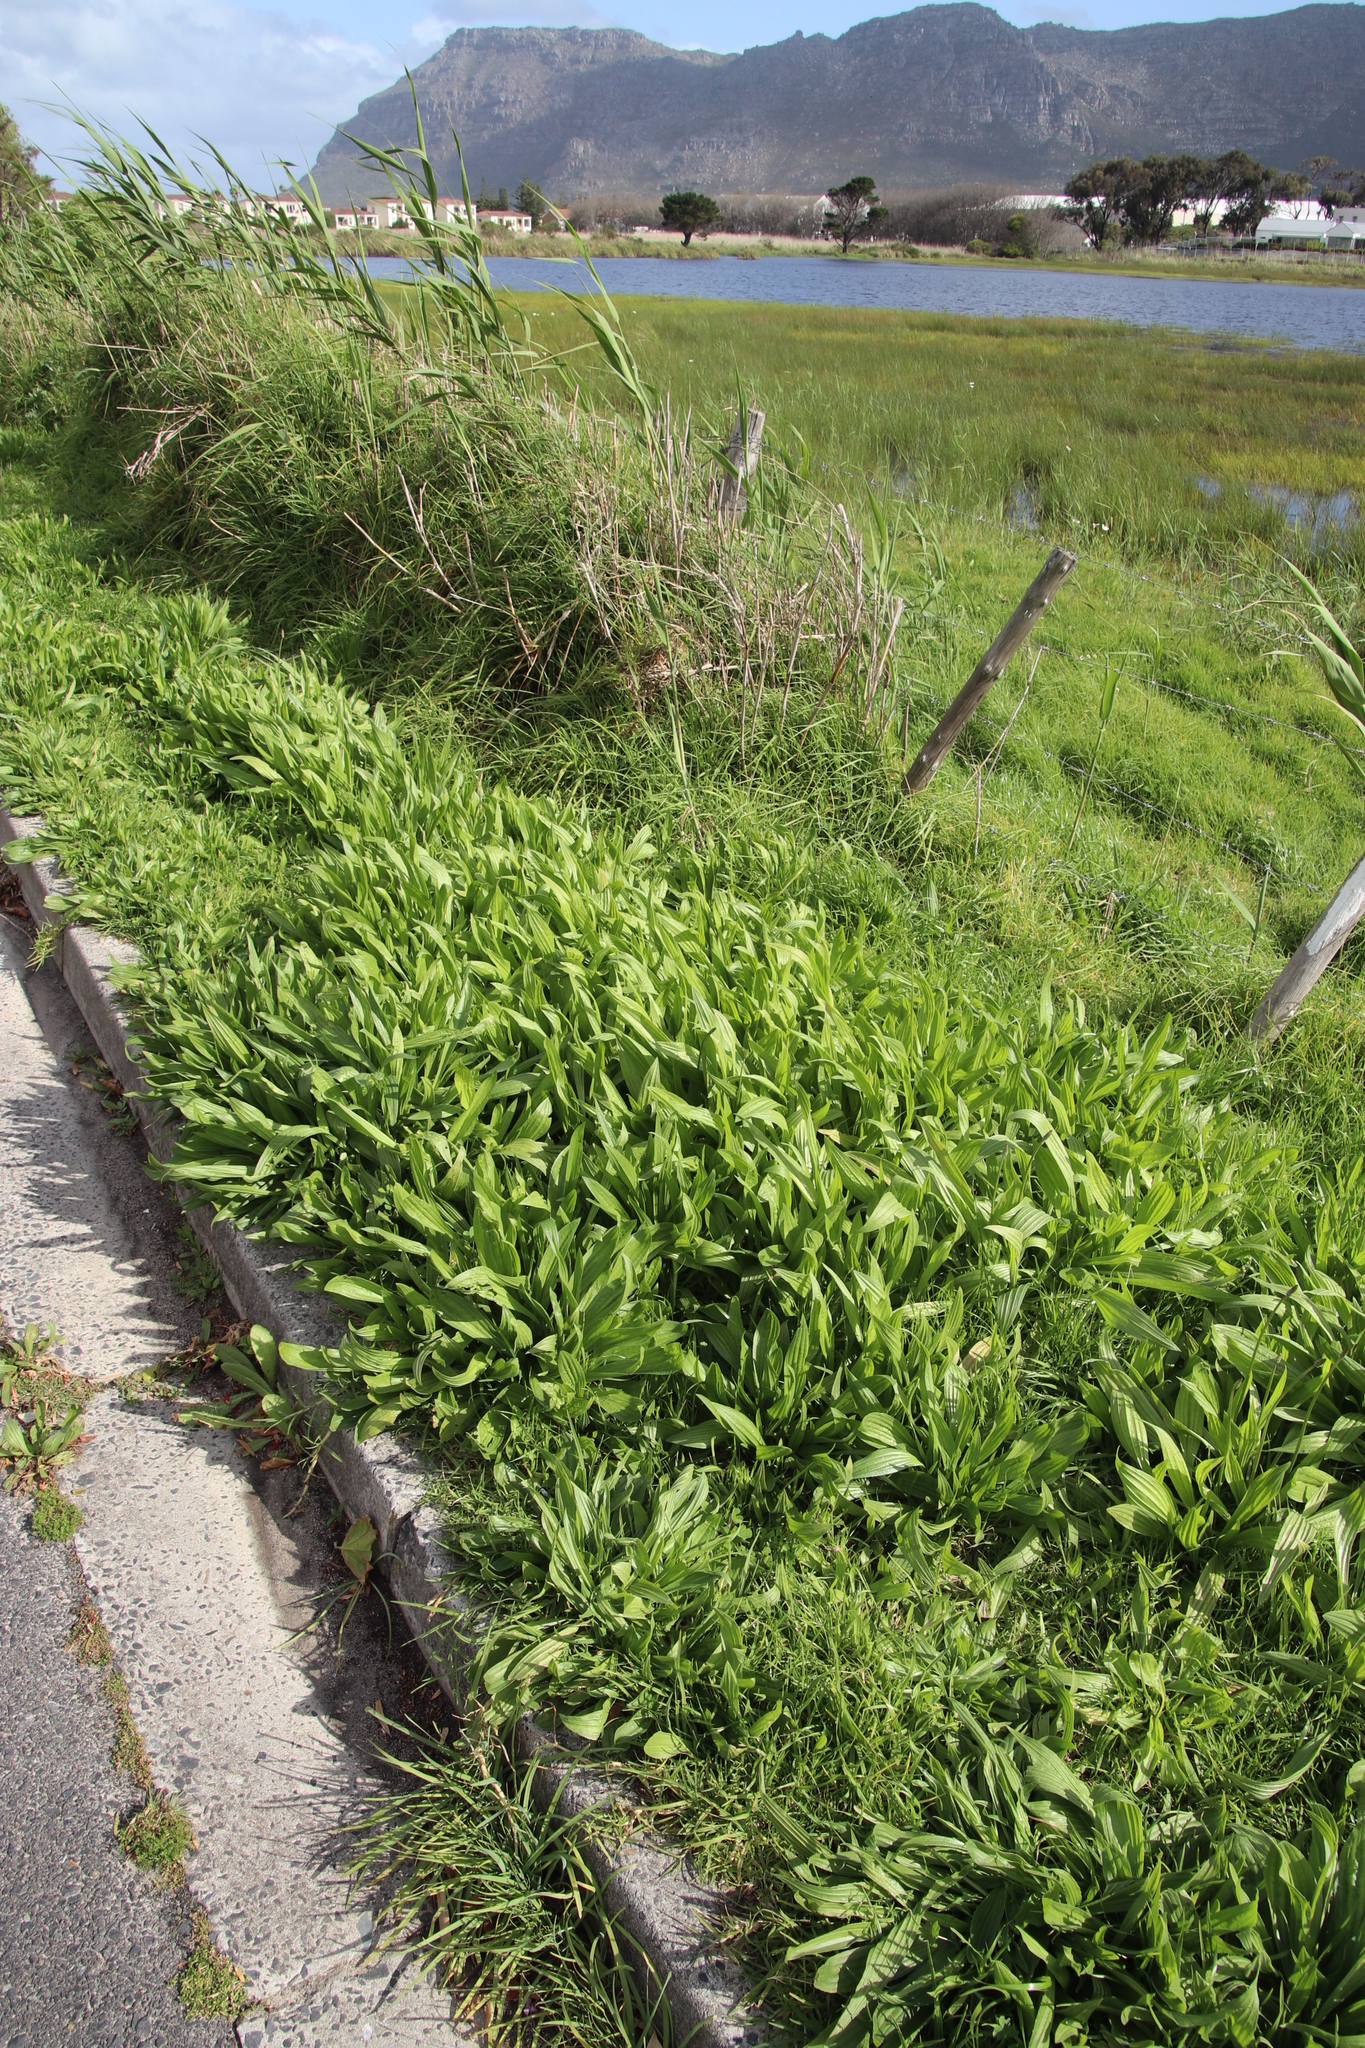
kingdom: Plantae
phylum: Tracheophyta
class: Magnoliopsida
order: Lamiales
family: Plantaginaceae
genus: Plantago
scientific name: Plantago lanceolata
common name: Ribwort plantain
